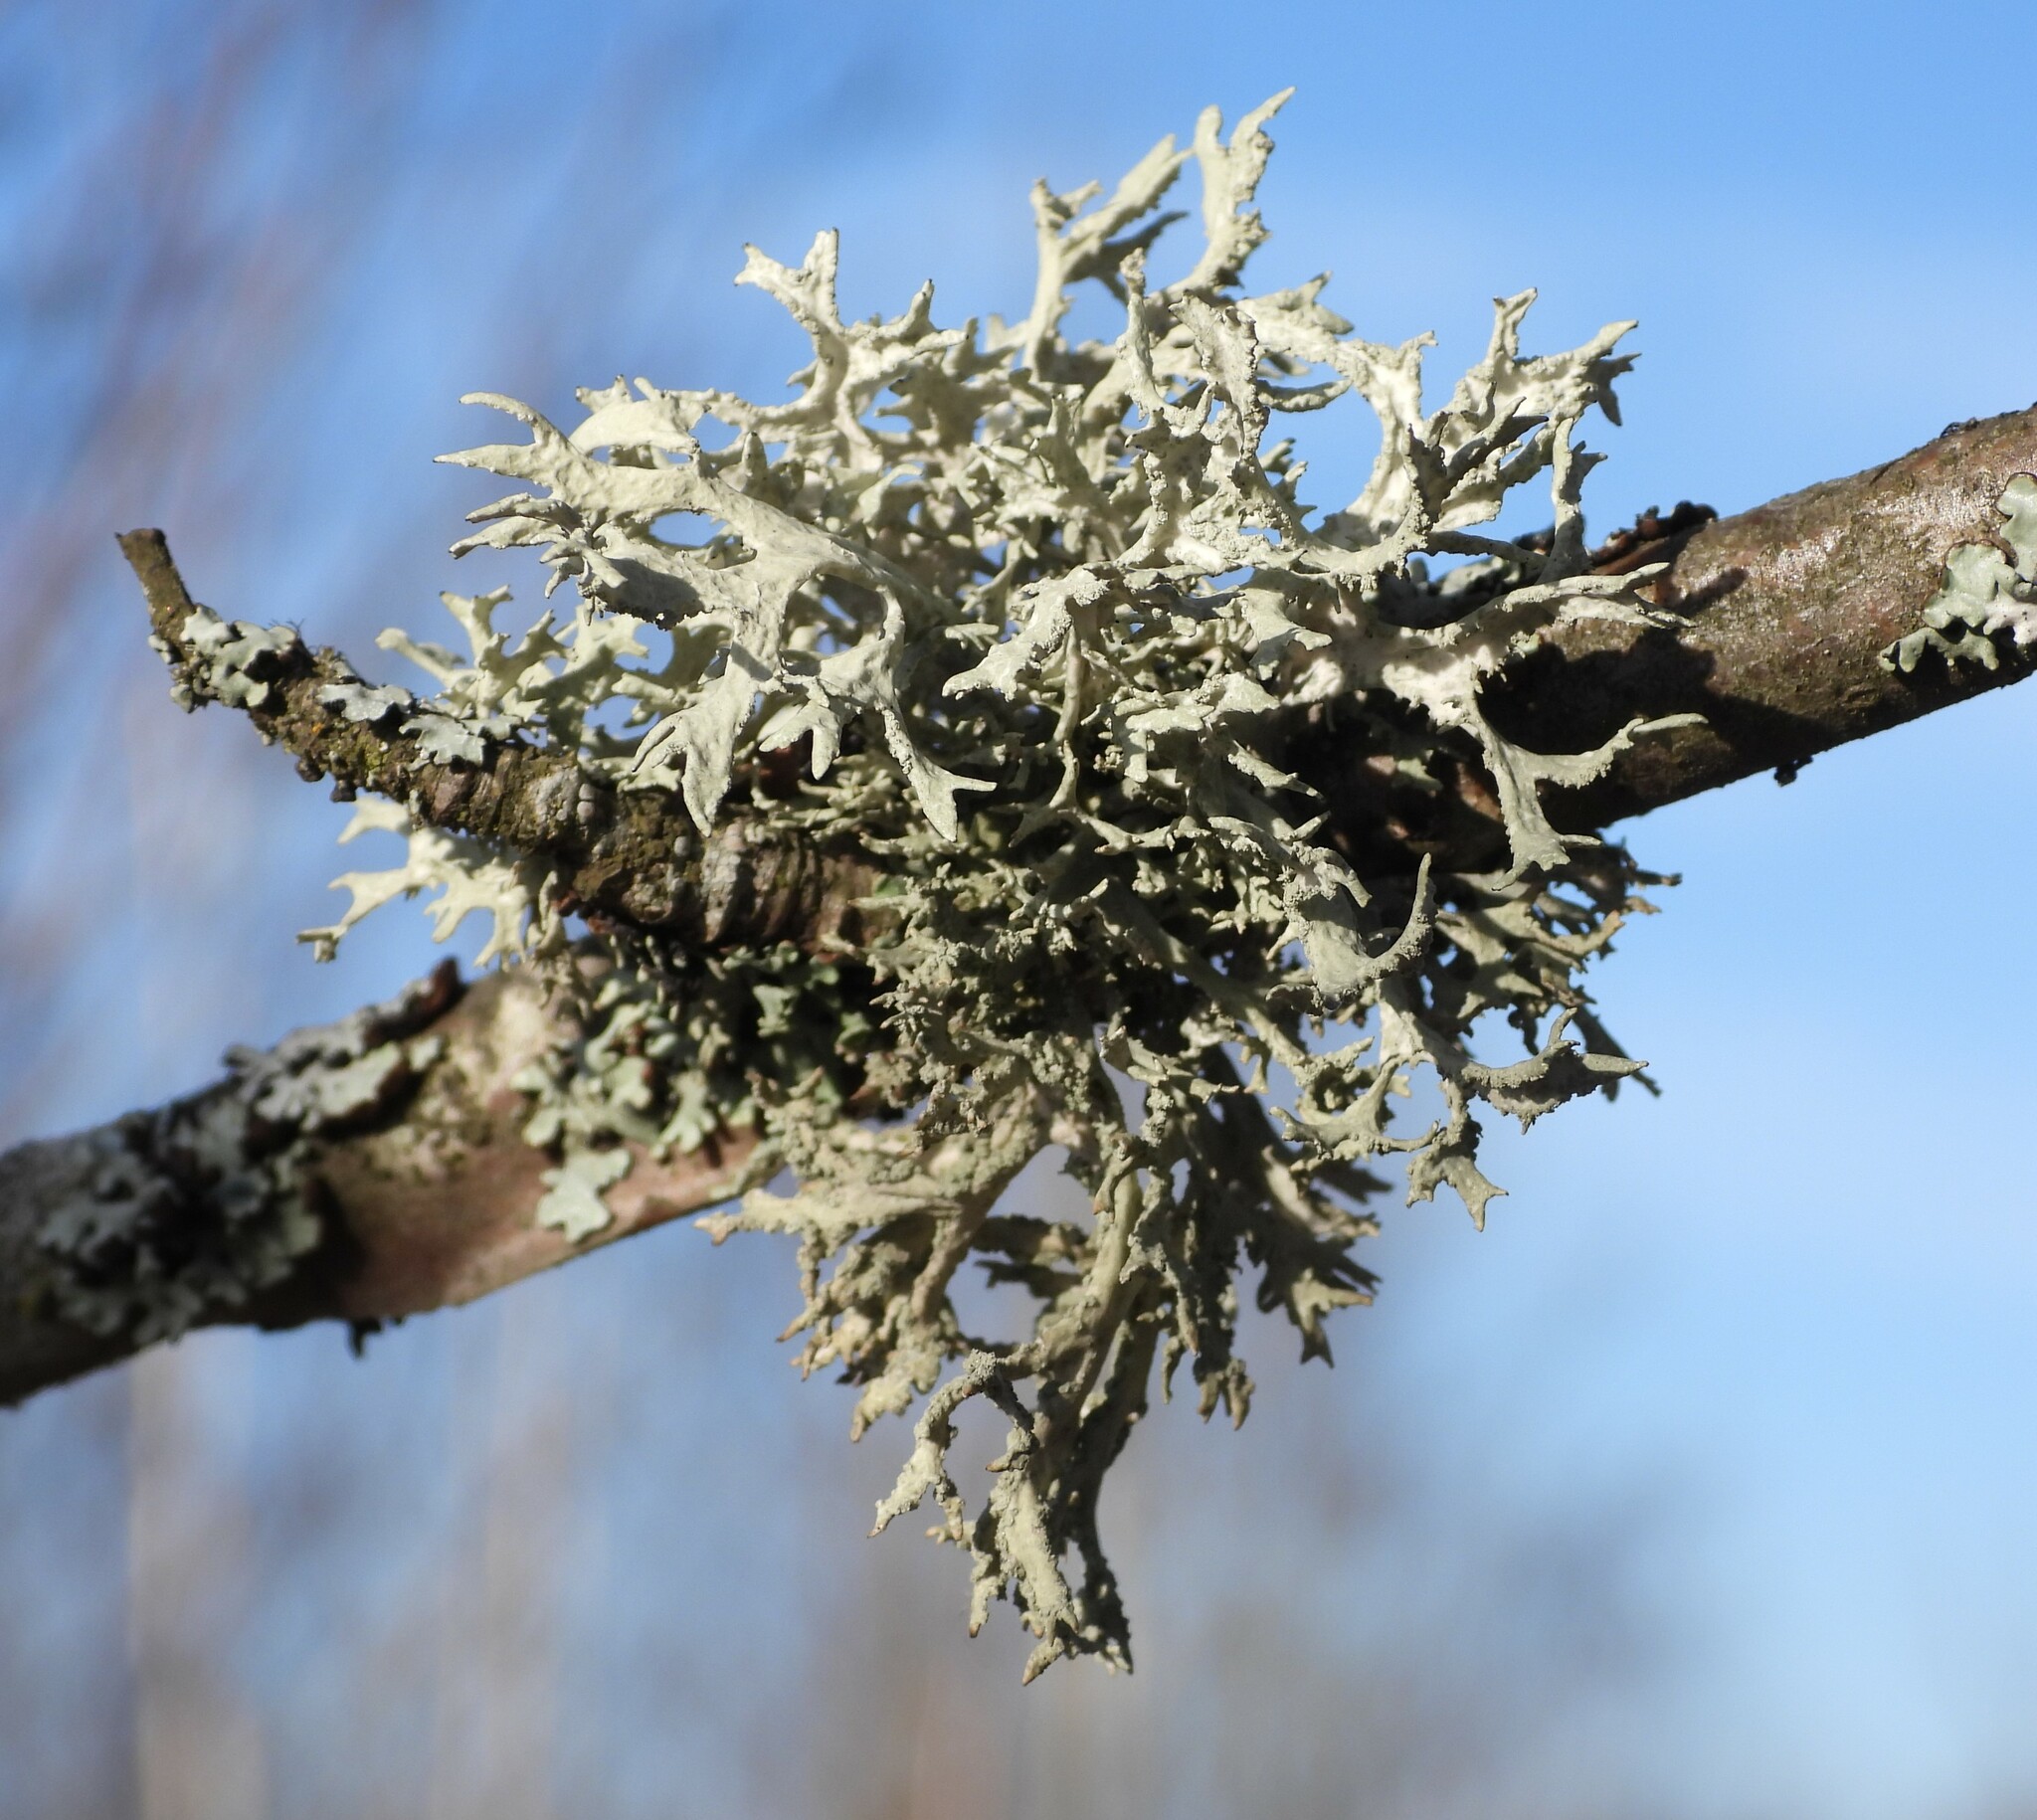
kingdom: Fungi
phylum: Ascomycota
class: Lecanoromycetes
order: Lecanorales
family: Parmeliaceae
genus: Evernia
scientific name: Evernia prunastri
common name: Oak moss
